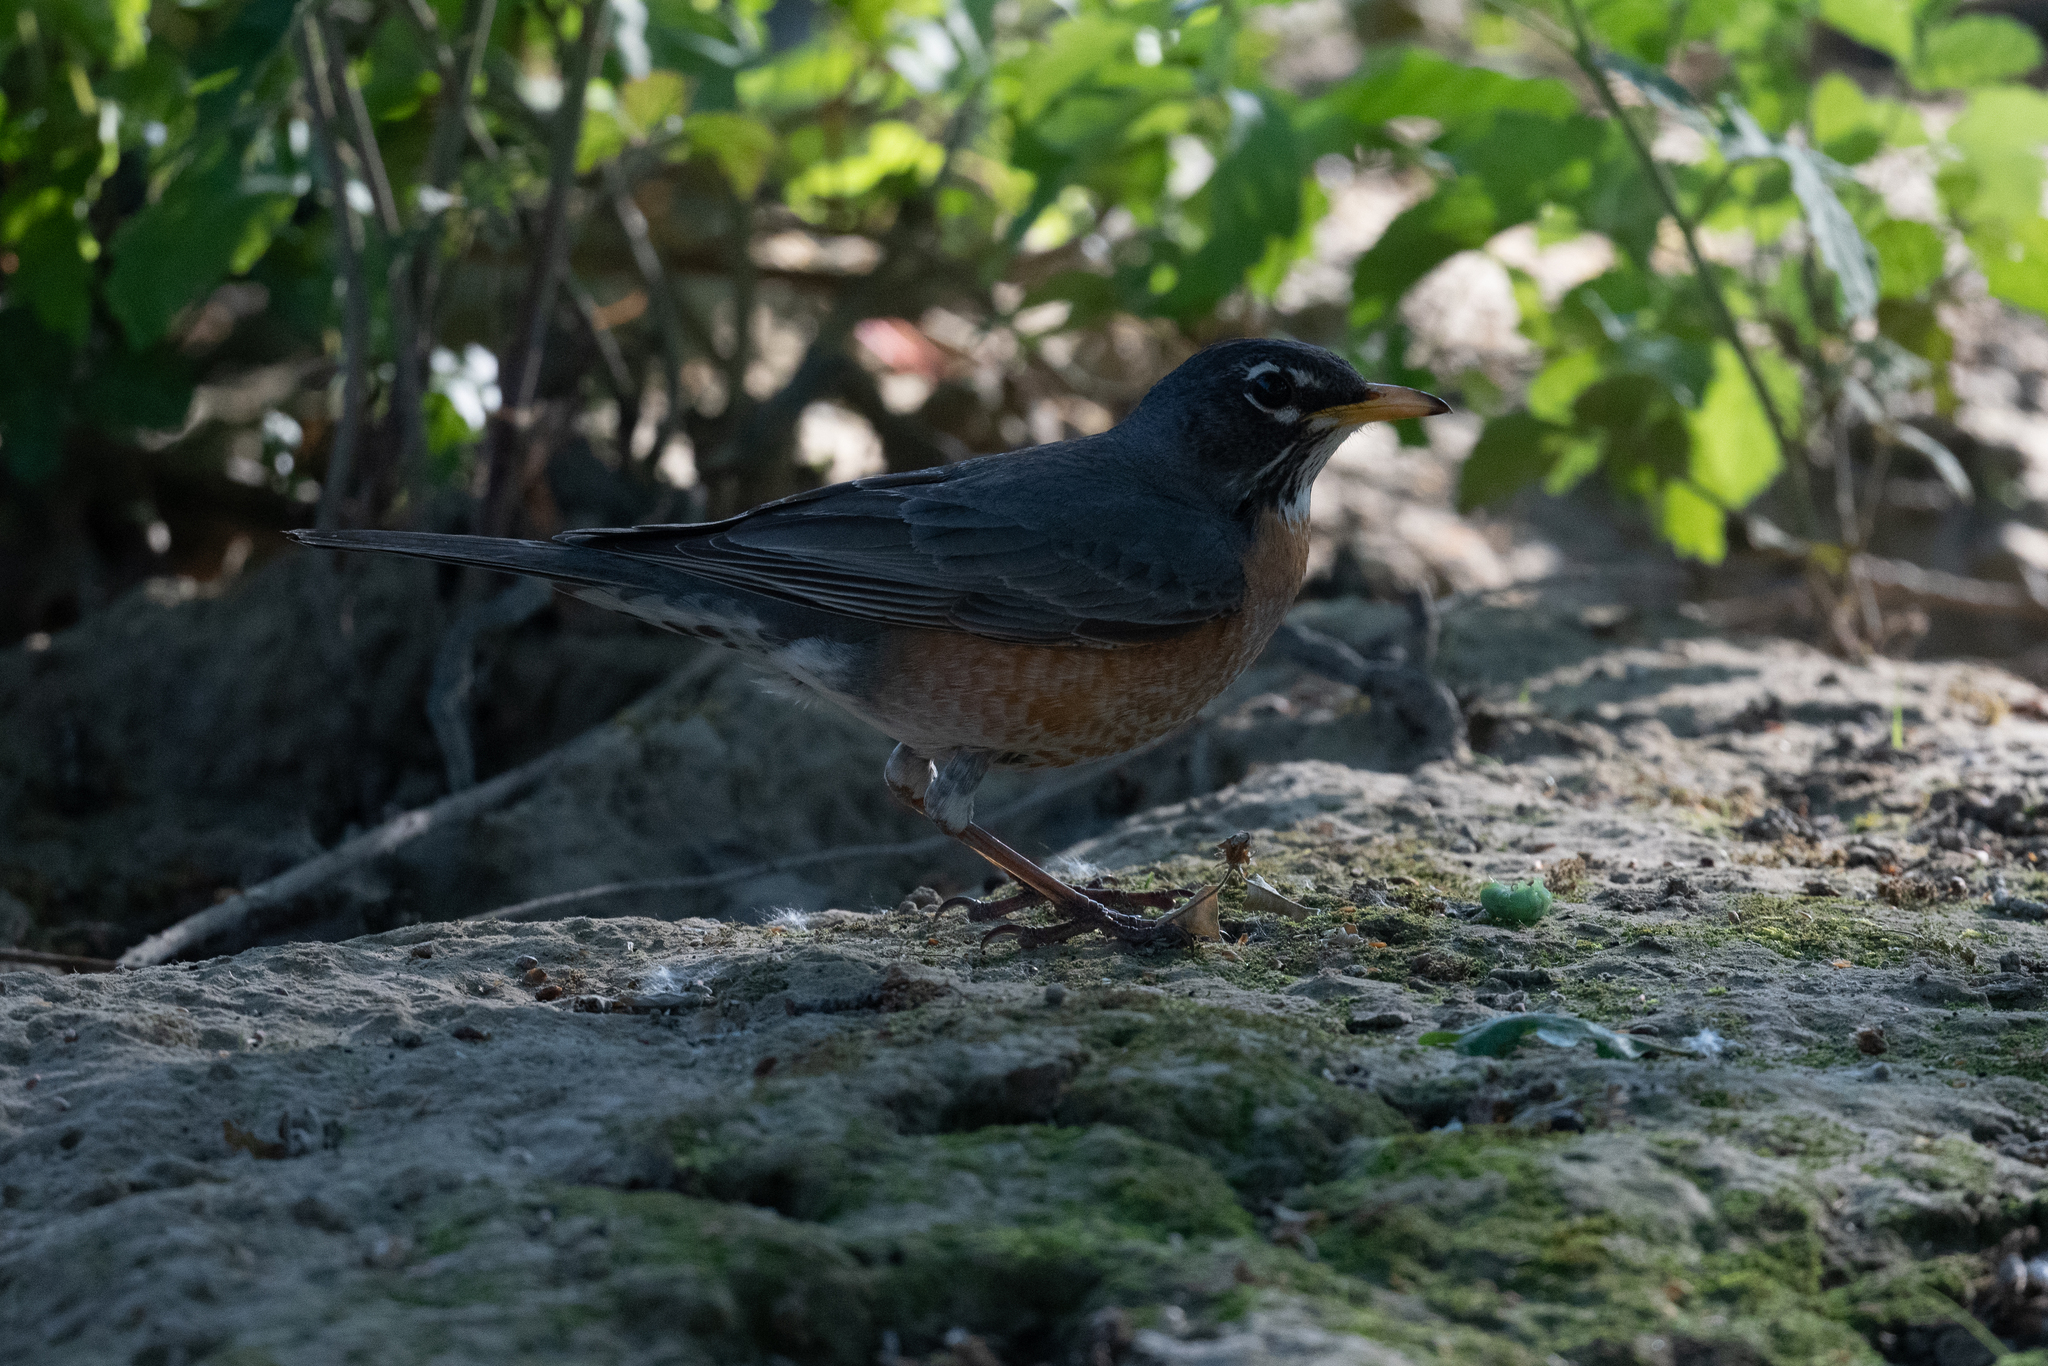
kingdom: Animalia
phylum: Chordata
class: Aves
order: Passeriformes
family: Turdidae
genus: Turdus
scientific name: Turdus migratorius
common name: American robin
